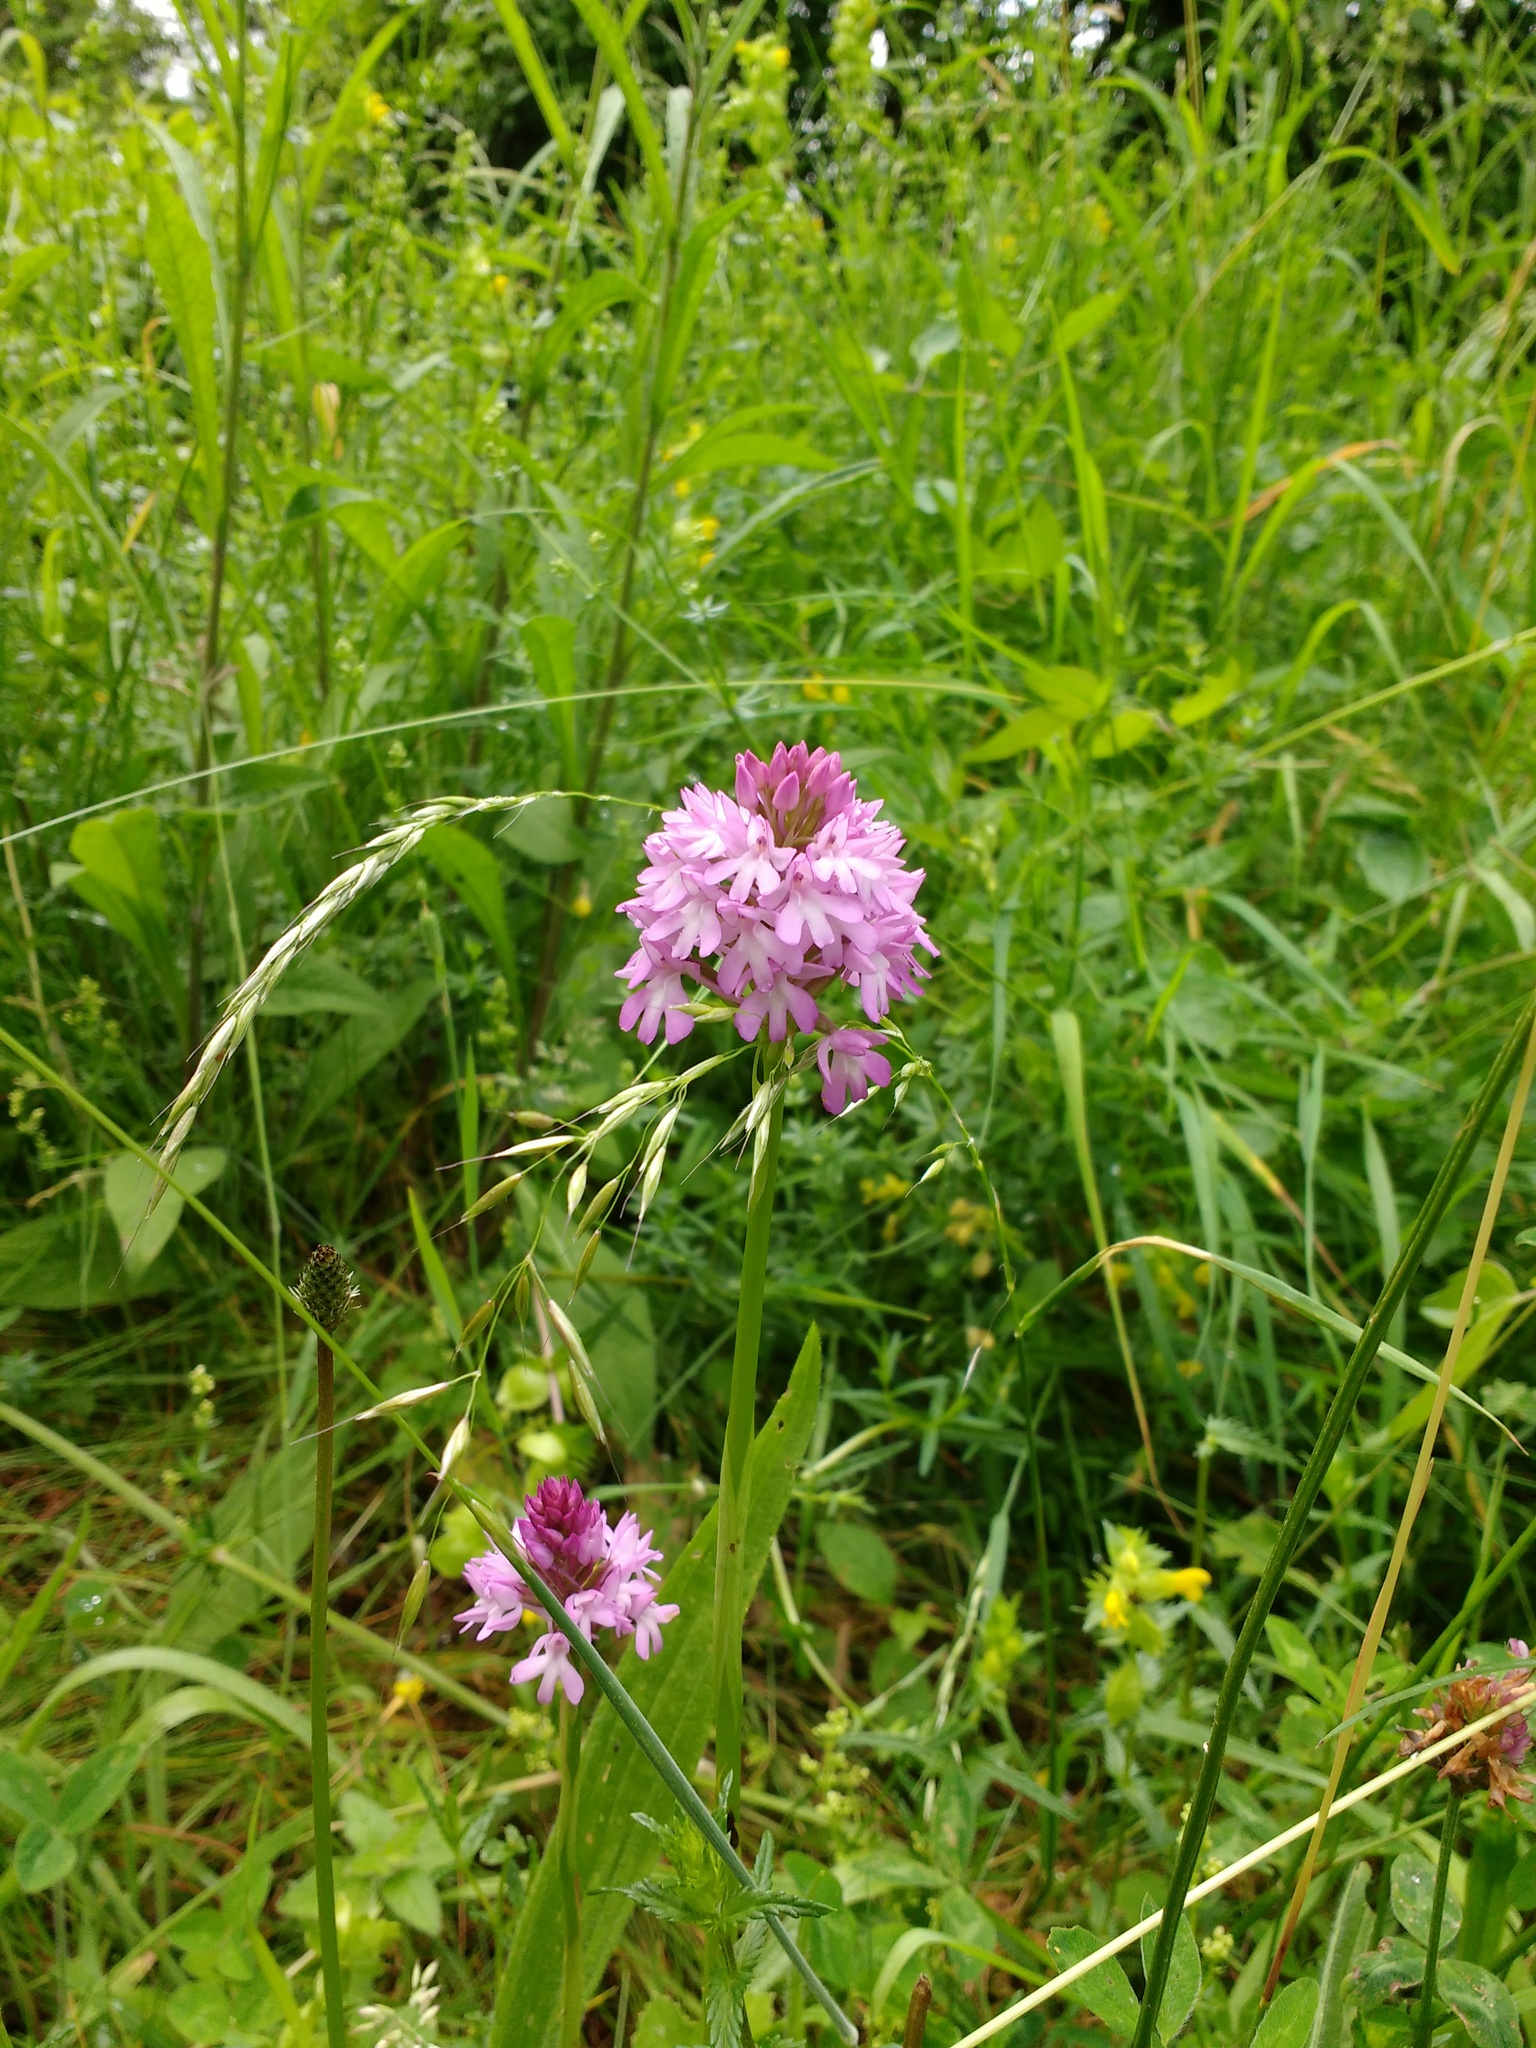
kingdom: Plantae
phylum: Tracheophyta
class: Liliopsida
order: Asparagales
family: Orchidaceae
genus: Anacamptis
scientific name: Anacamptis pyramidalis
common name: Pyramidal orchid
